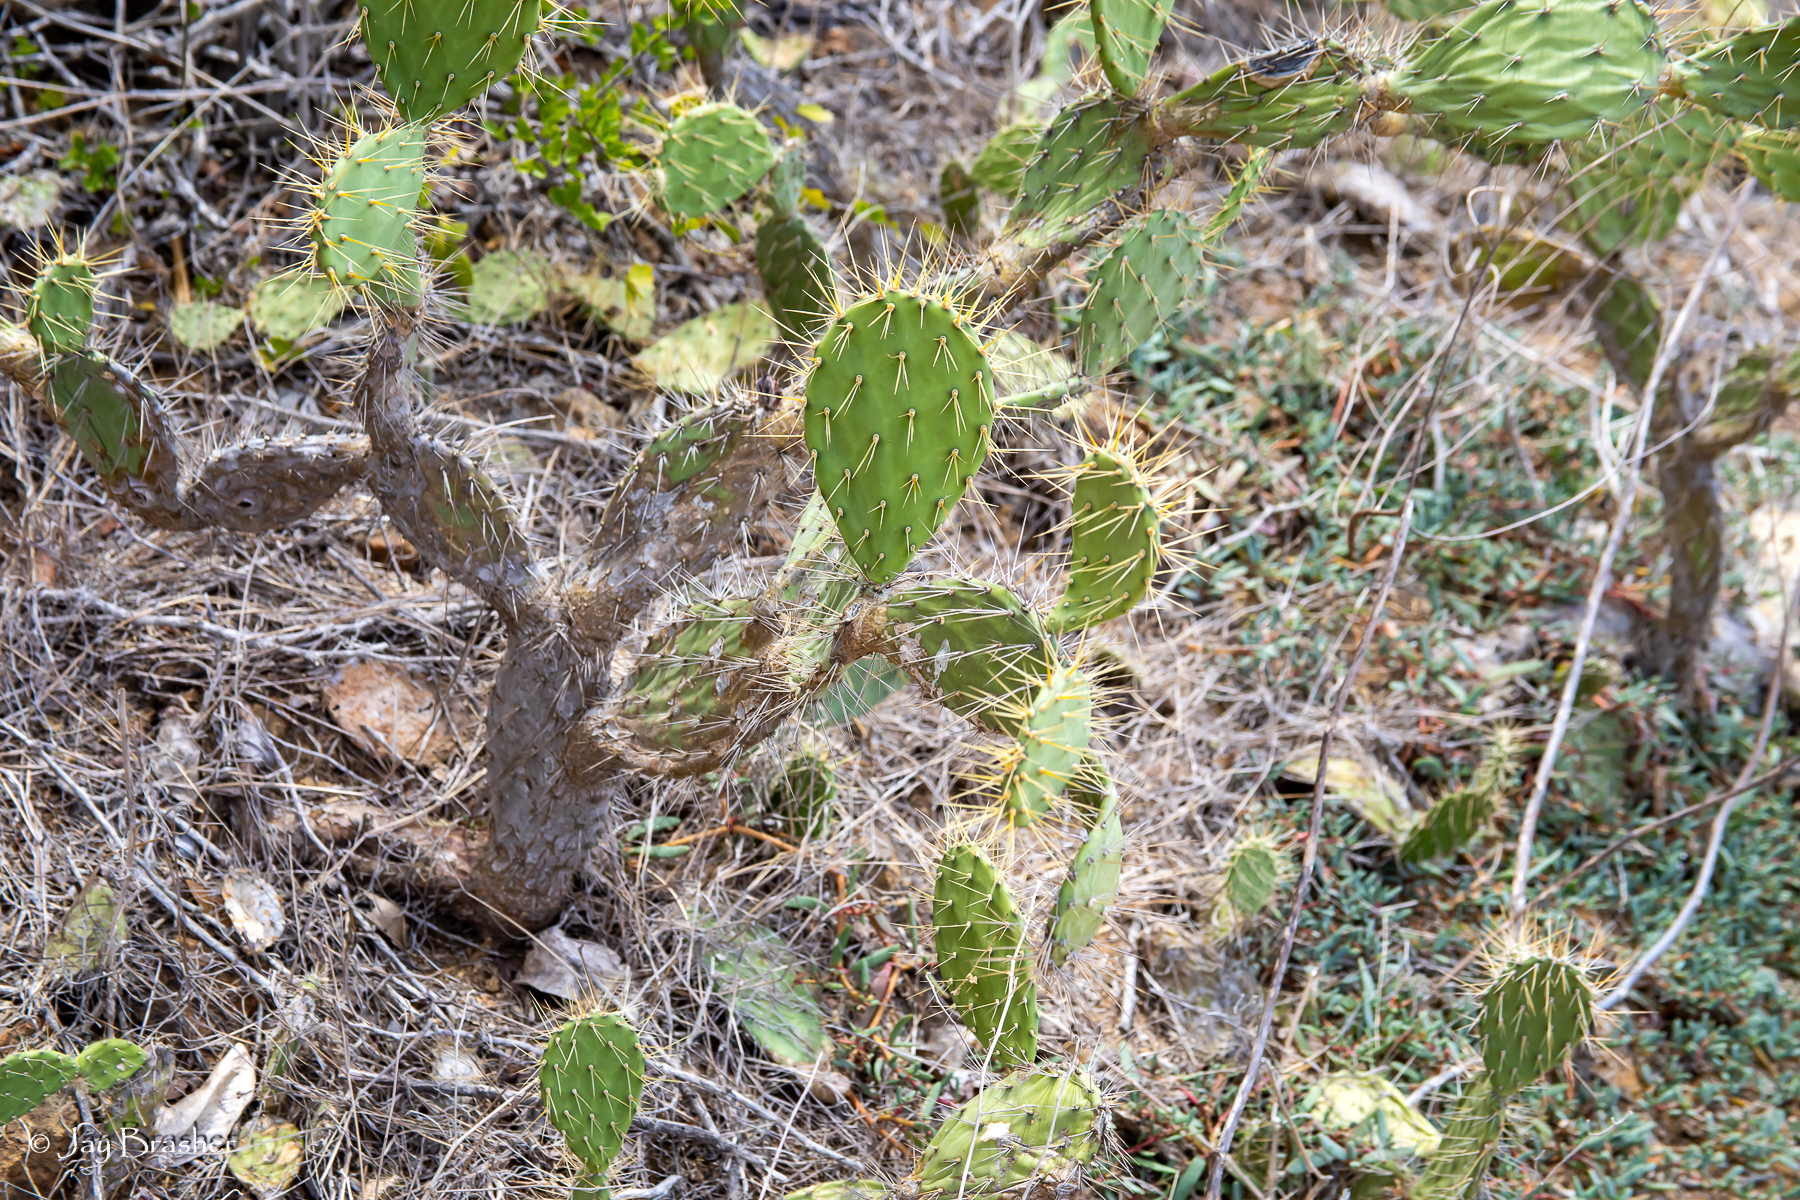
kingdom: Plantae
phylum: Tracheophyta
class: Magnoliopsida
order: Caryophyllales
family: Cactaceae
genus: Opuntia
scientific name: Opuntia caracassana
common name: Common prickly pear
